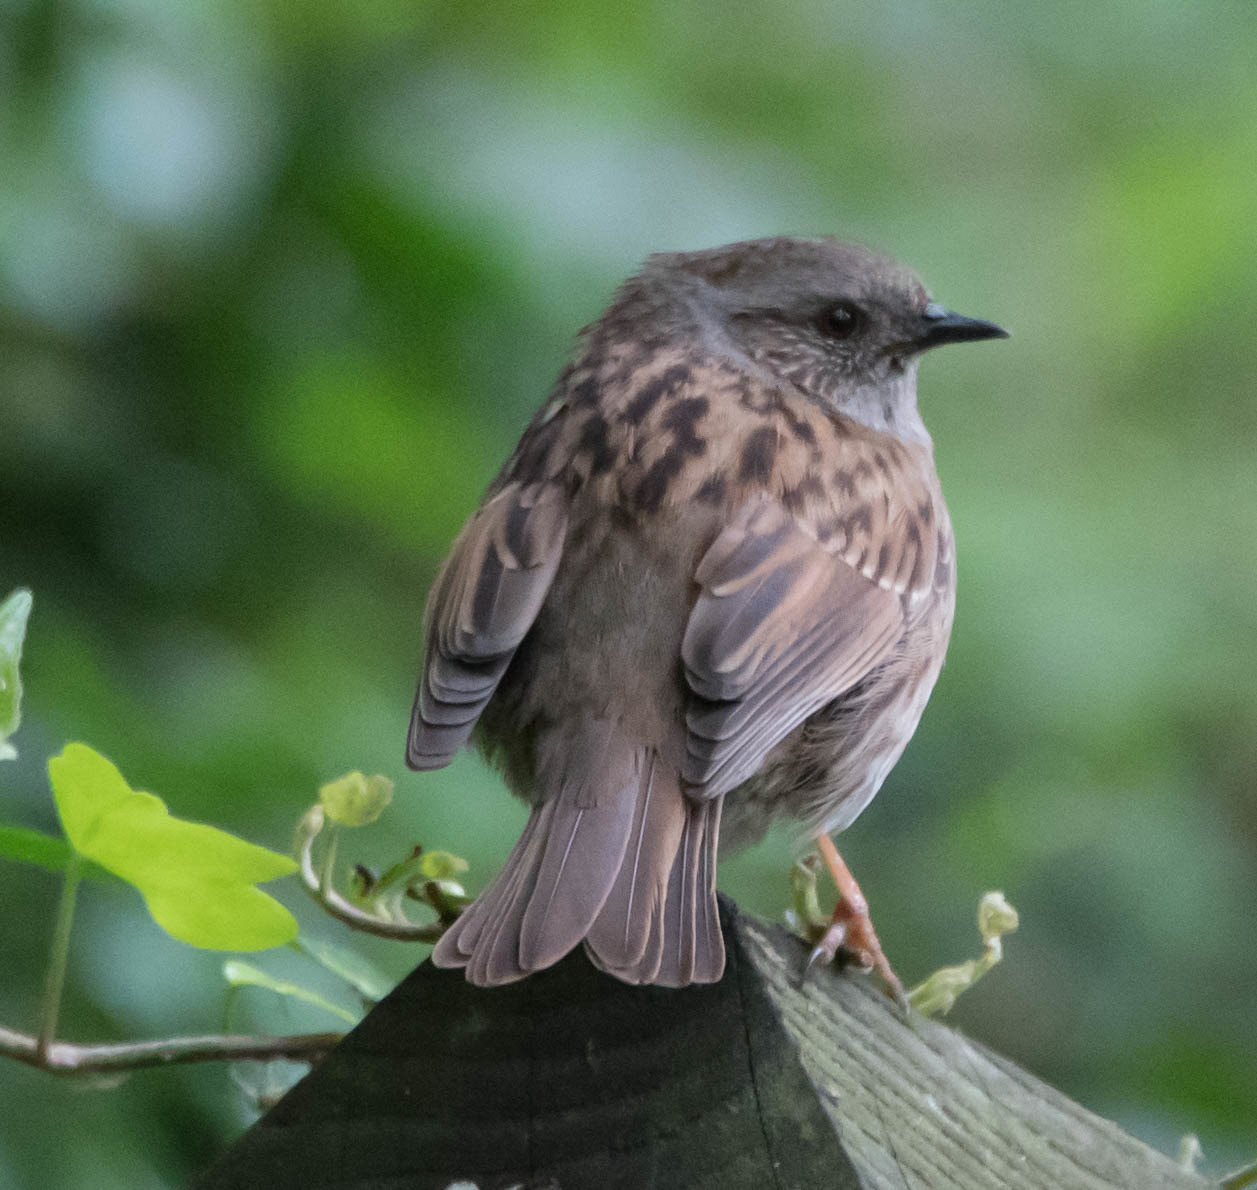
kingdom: Animalia
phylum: Chordata
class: Aves
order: Passeriformes
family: Prunellidae
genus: Prunella
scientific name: Prunella modularis
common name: Dunnock
